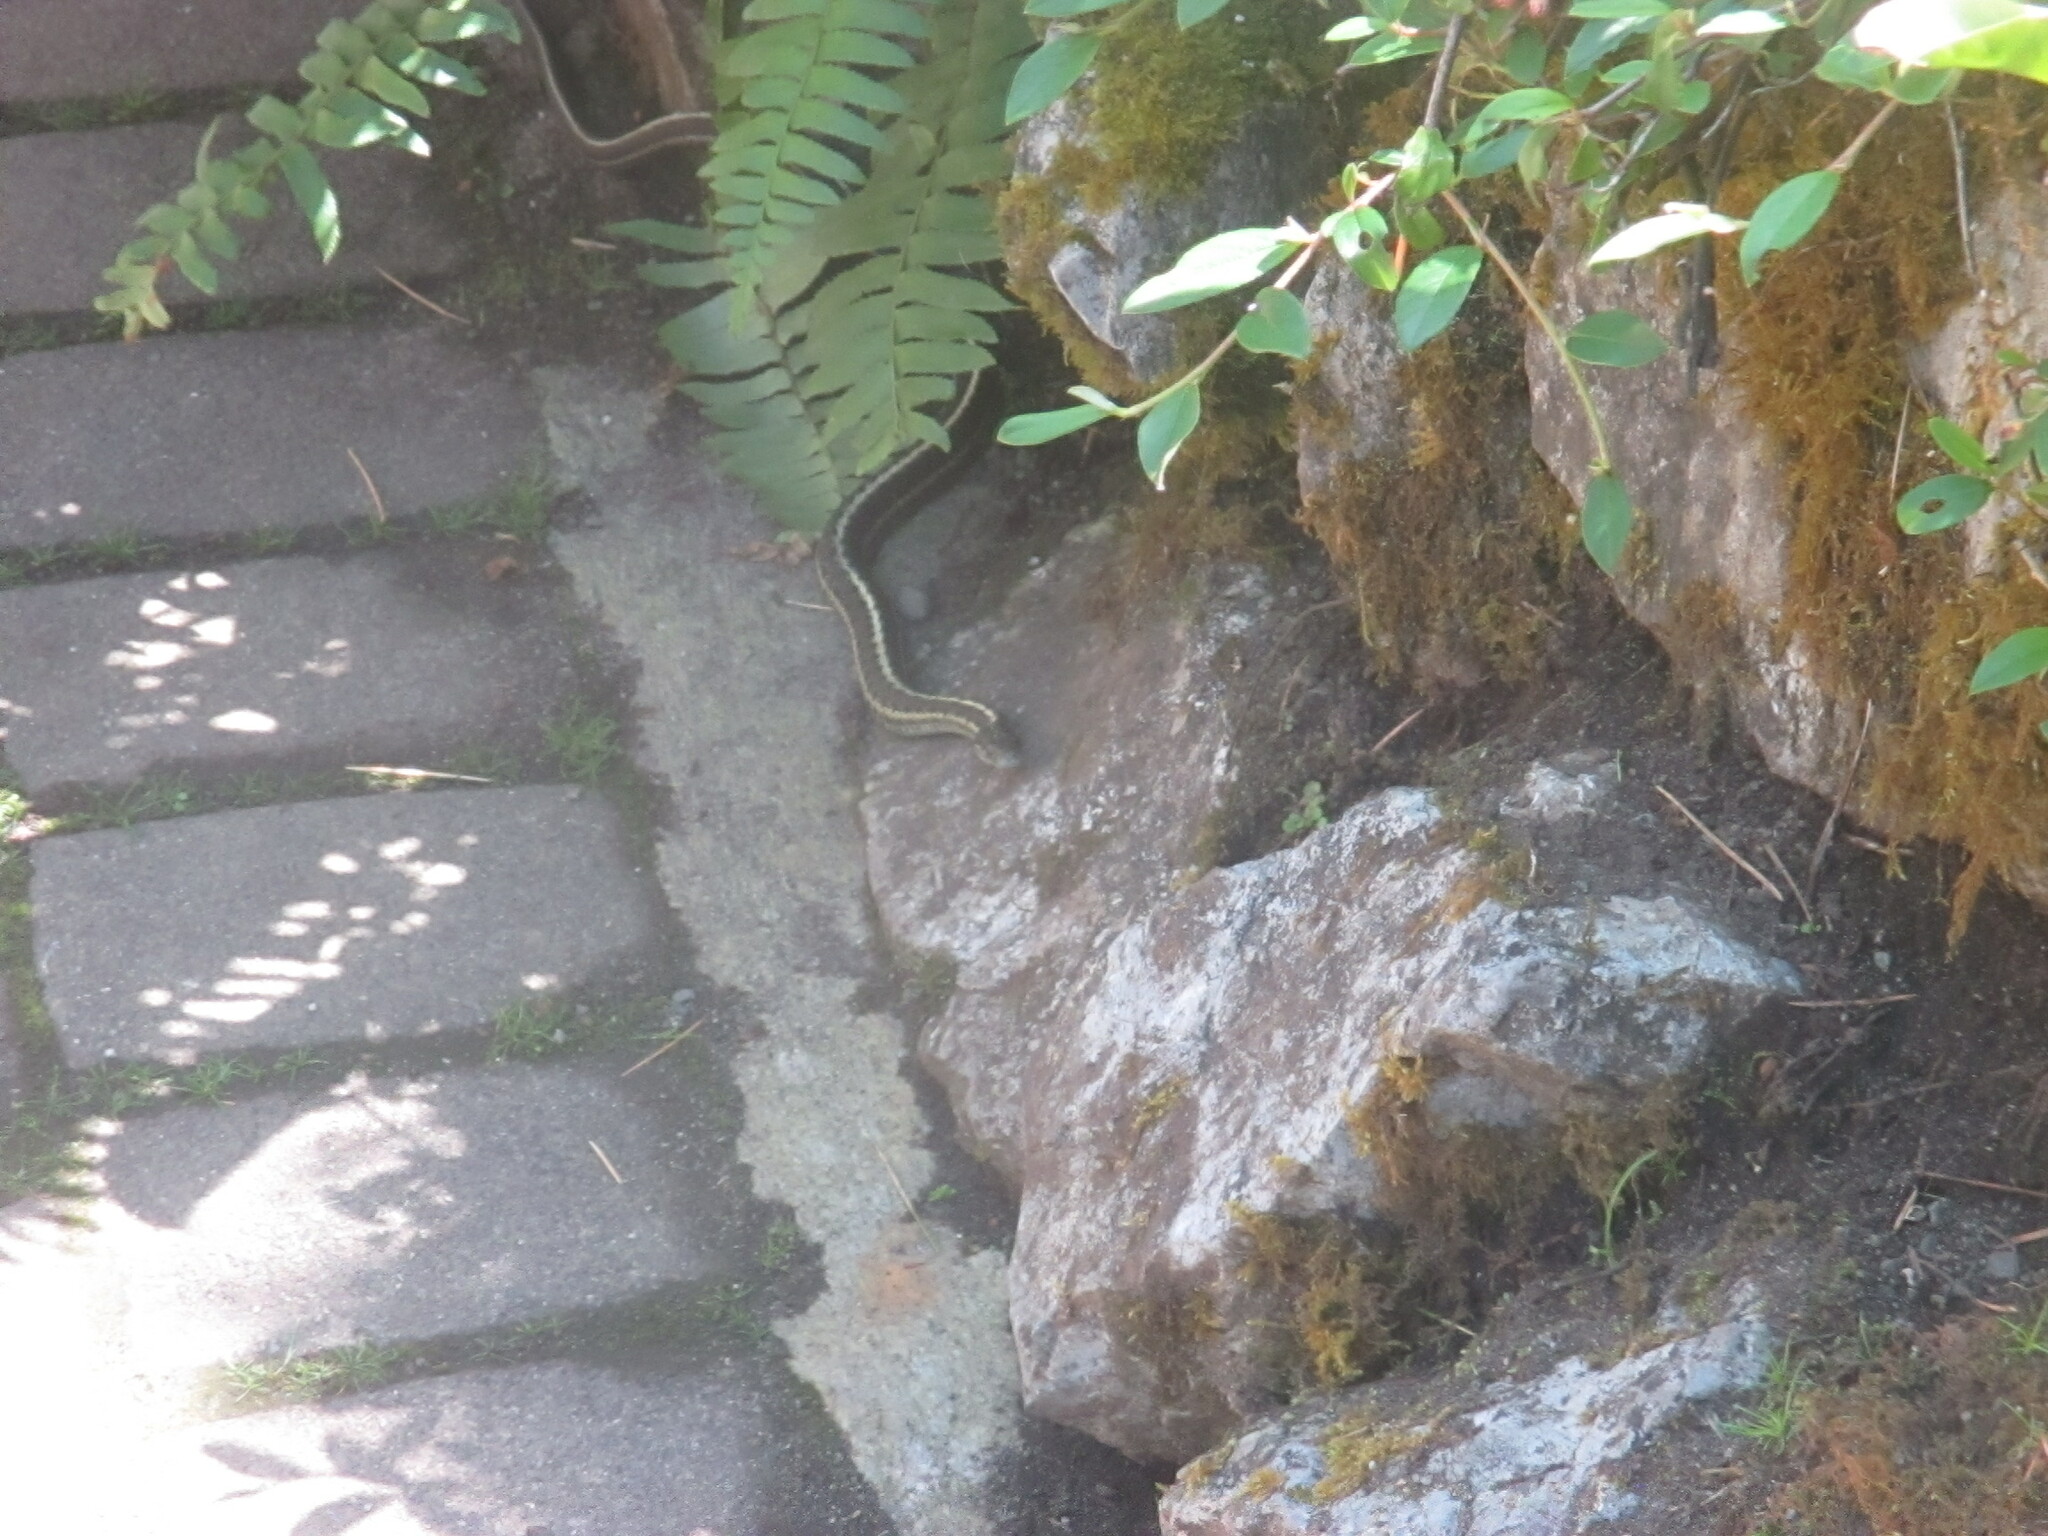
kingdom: Animalia
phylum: Chordata
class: Squamata
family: Colubridae
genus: Thamnophis
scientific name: Thamnophis elegans
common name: Western terrestrial garter snake
